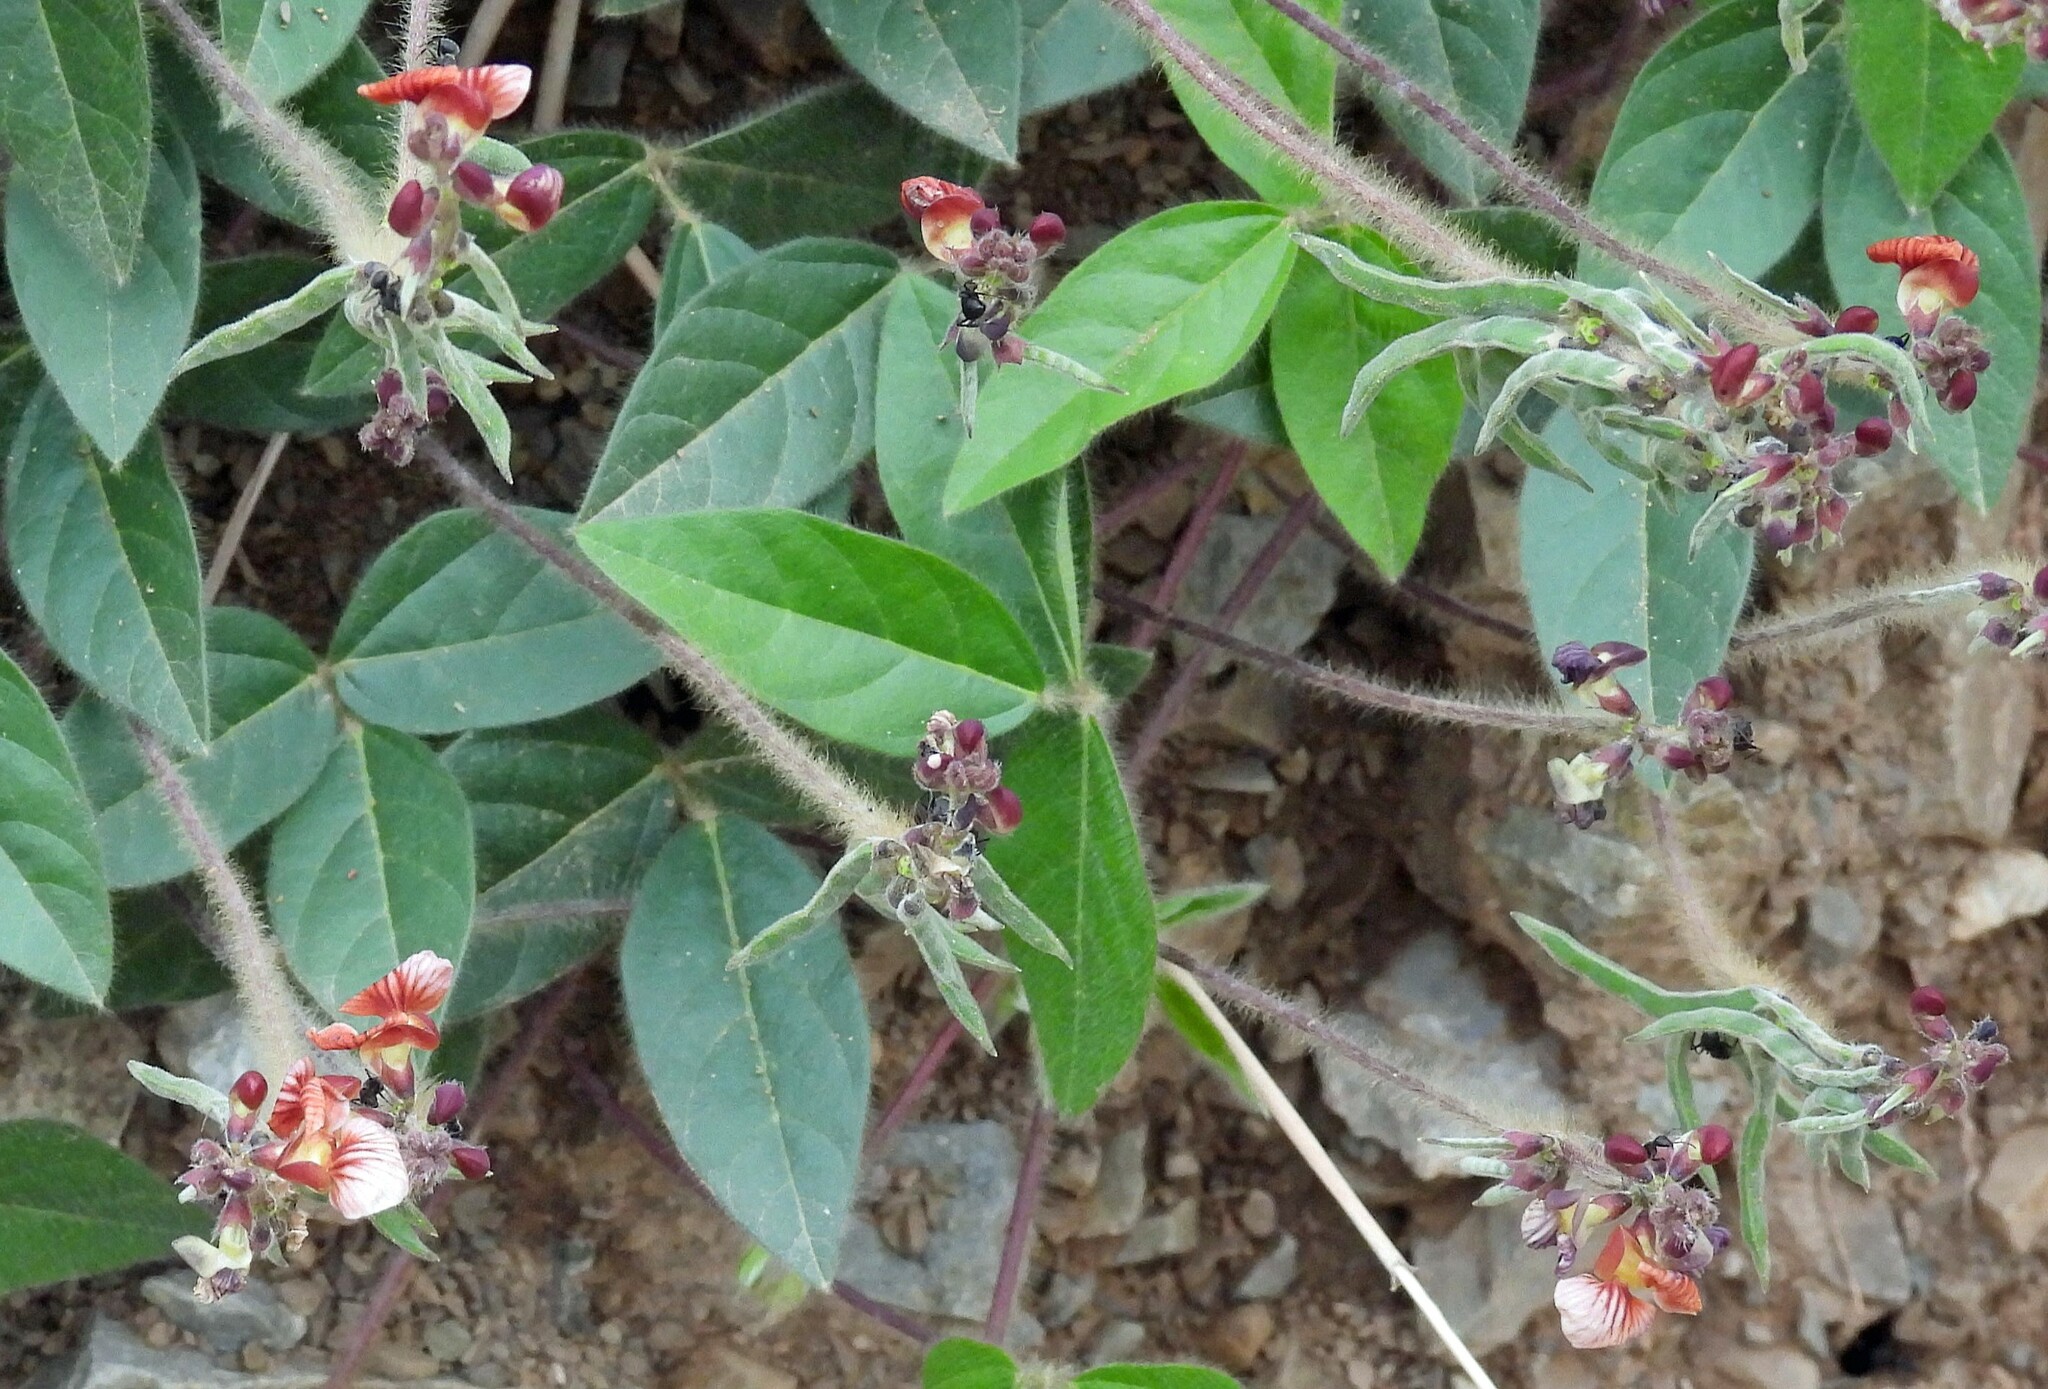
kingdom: Plantae
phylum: Tracheophyta
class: Magnoliopsida
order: Fabales
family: Fabaceae
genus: Macroptilium
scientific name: Macroptilium prostratum
